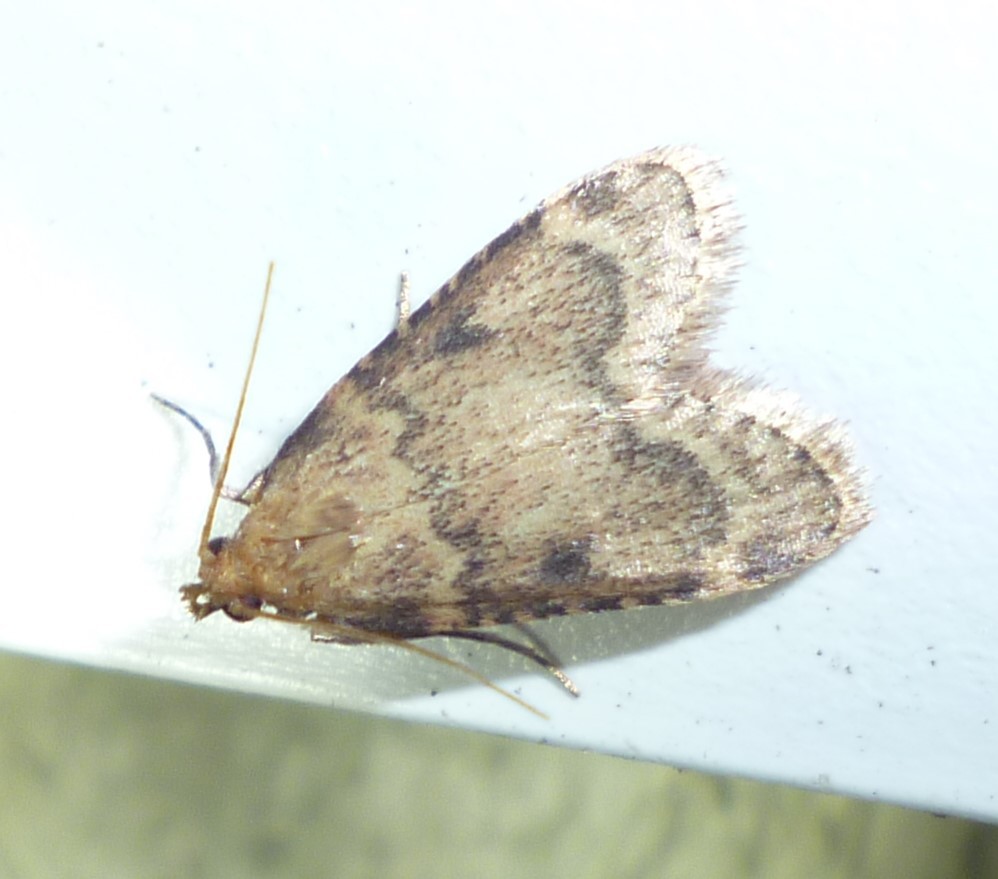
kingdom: Animalia
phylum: Arthropoda
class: Insecta
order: Lepidoptera
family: Pyralidae
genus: Aglossa
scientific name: Aglossa disciferalis
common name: Pink-masked pyralid moth
